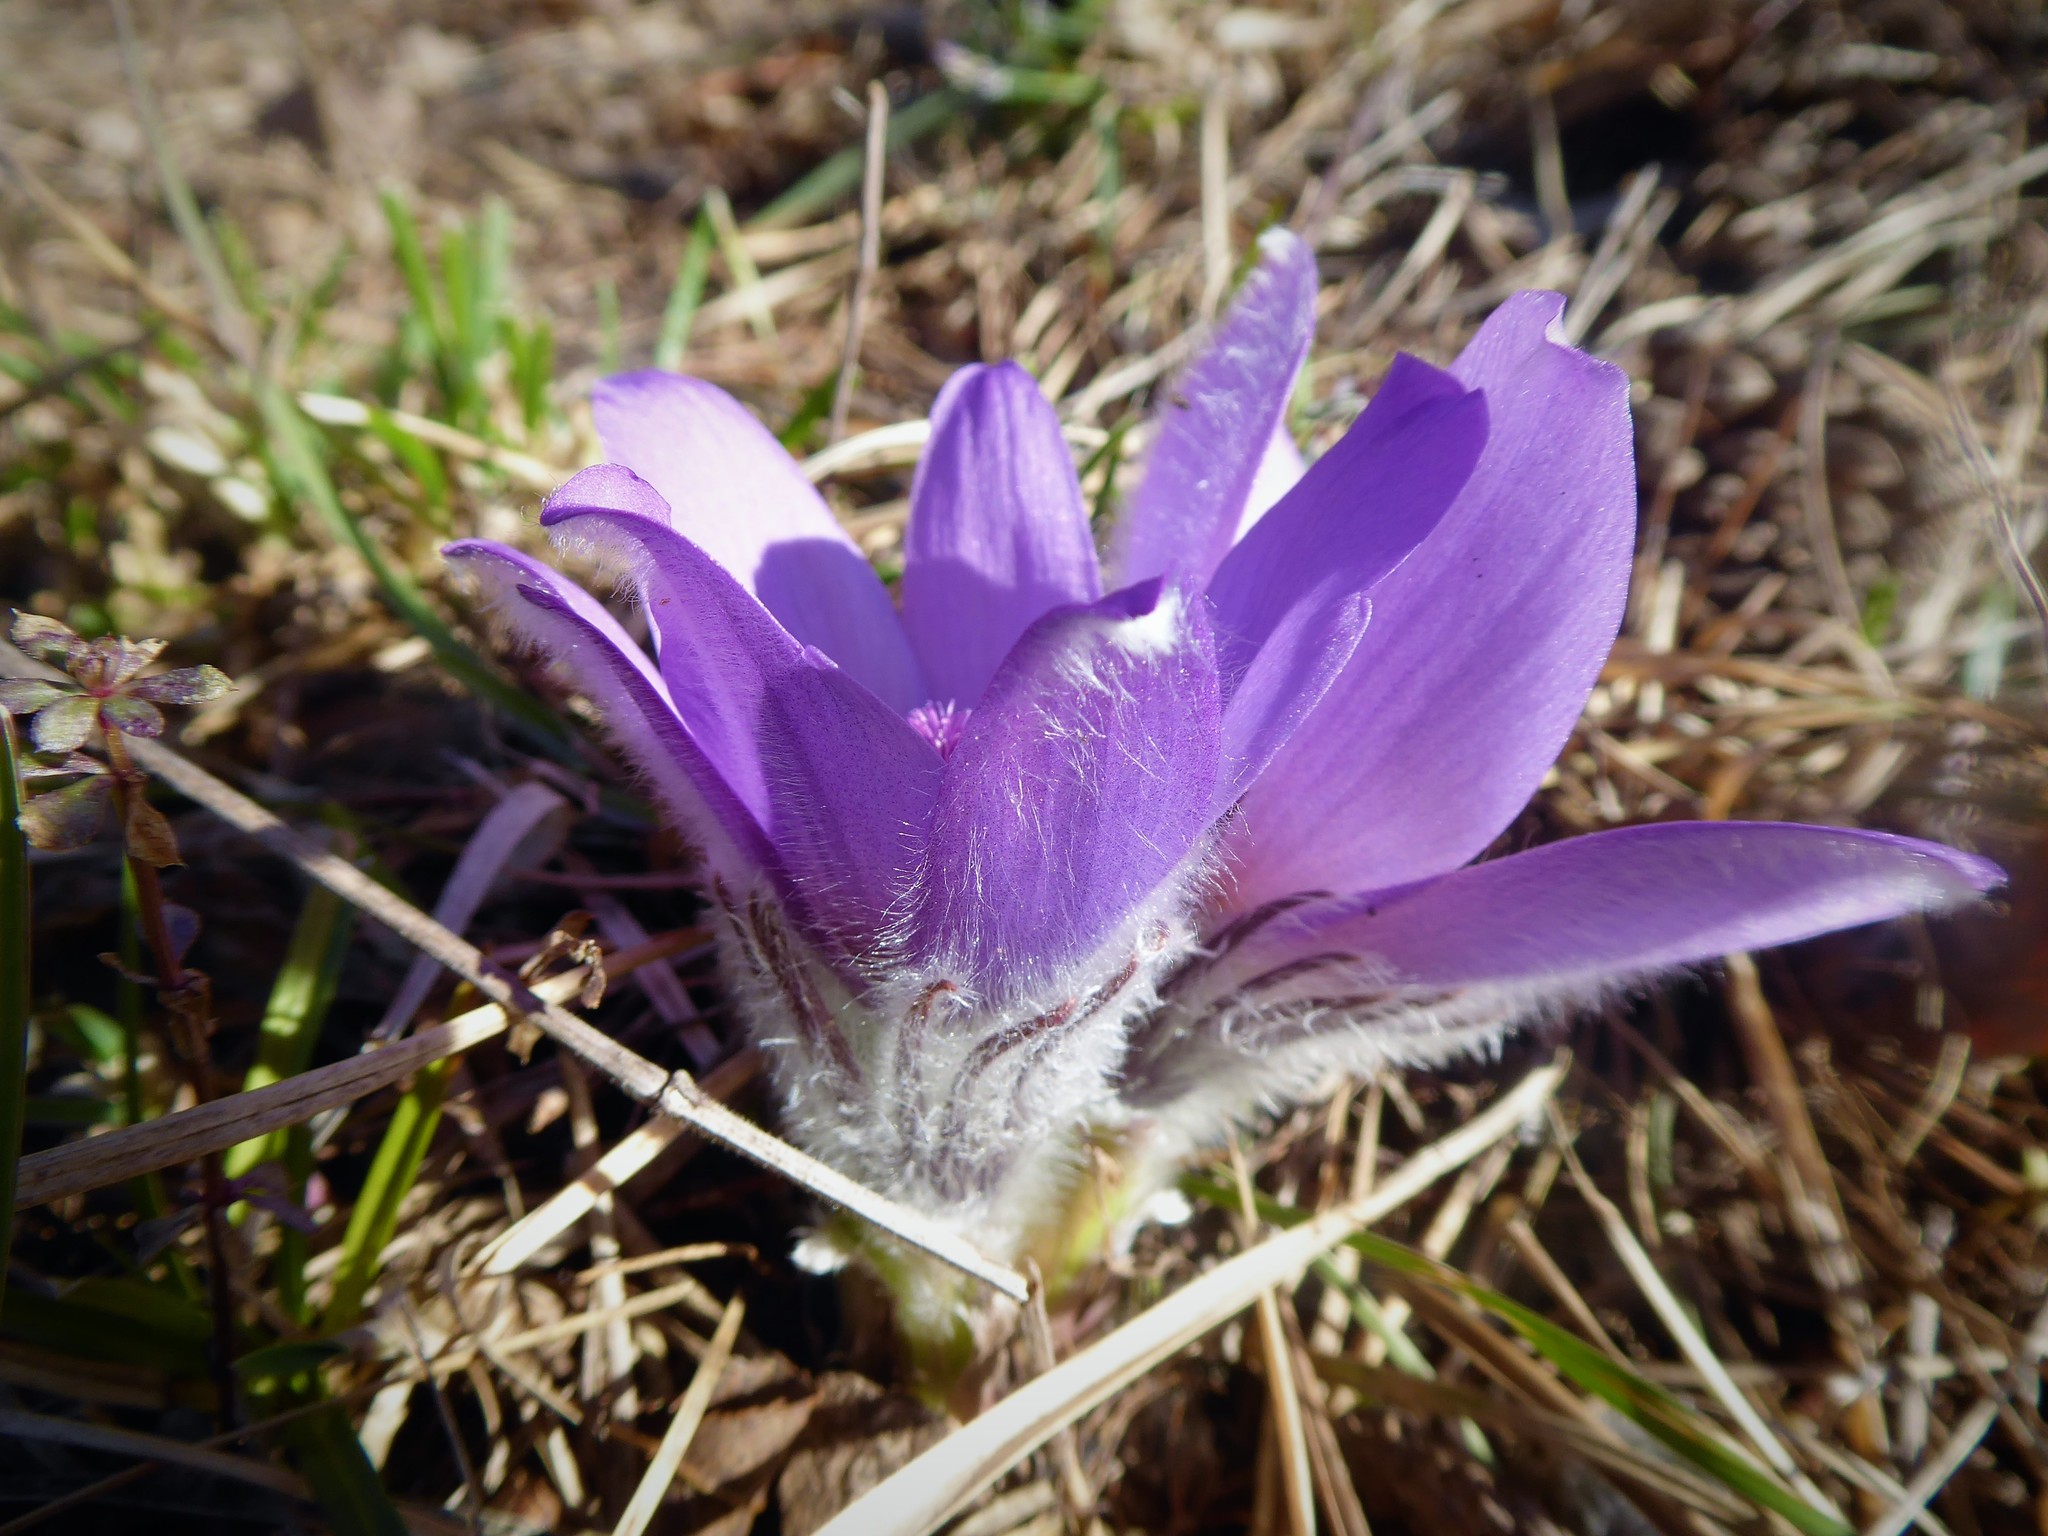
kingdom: Plantae
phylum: Tracheophyta
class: Magnoliopsida
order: Ranunculales
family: Ranunculaceae
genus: Pulsatilla
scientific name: Pulsatilla grandis
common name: Greater pasque flower
